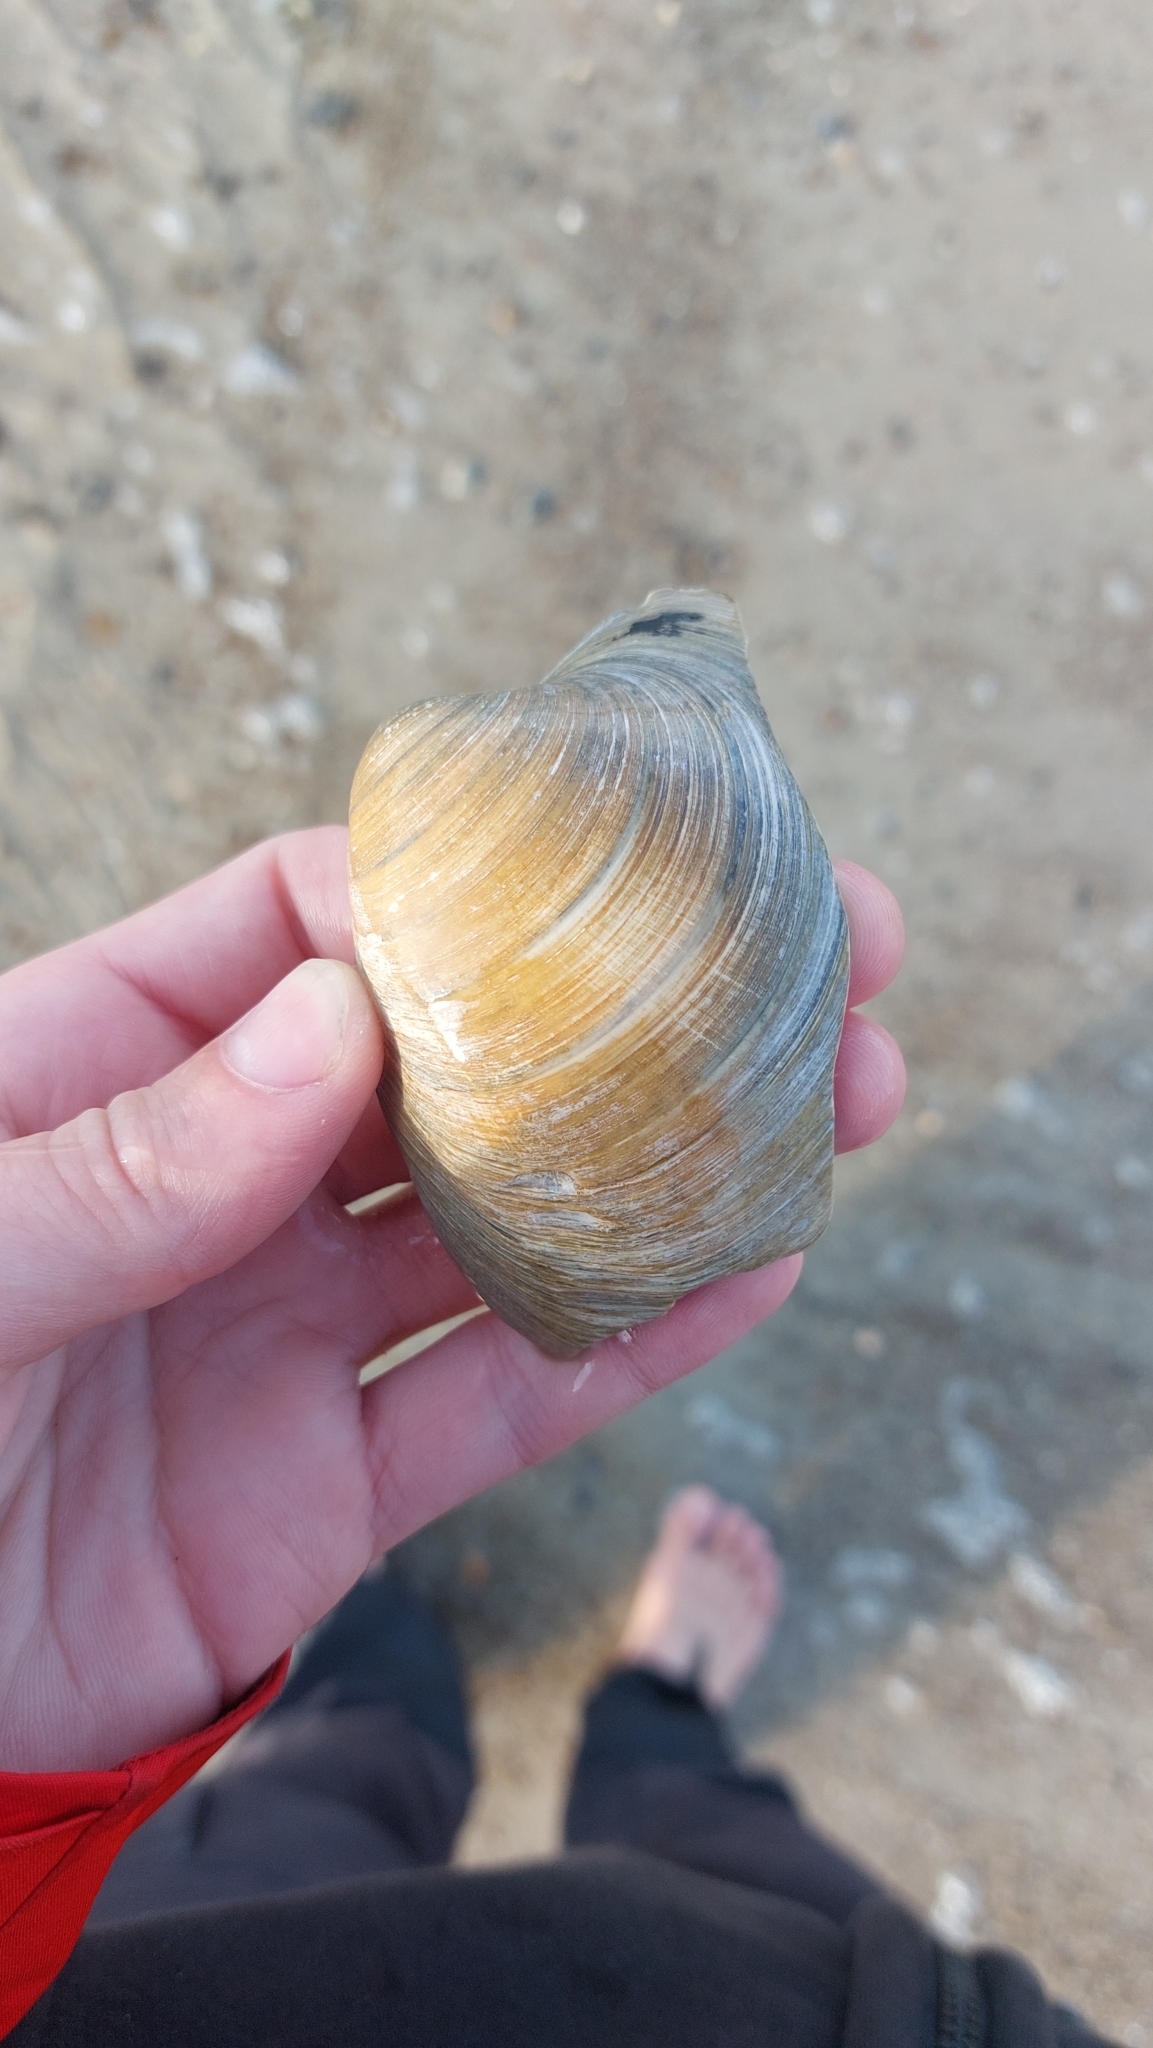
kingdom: Animalia
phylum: Mollusca
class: Bivalvia
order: Venerida
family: Arcticidae
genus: Arctica
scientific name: Arctica islandica
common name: Icelandic cyprine
